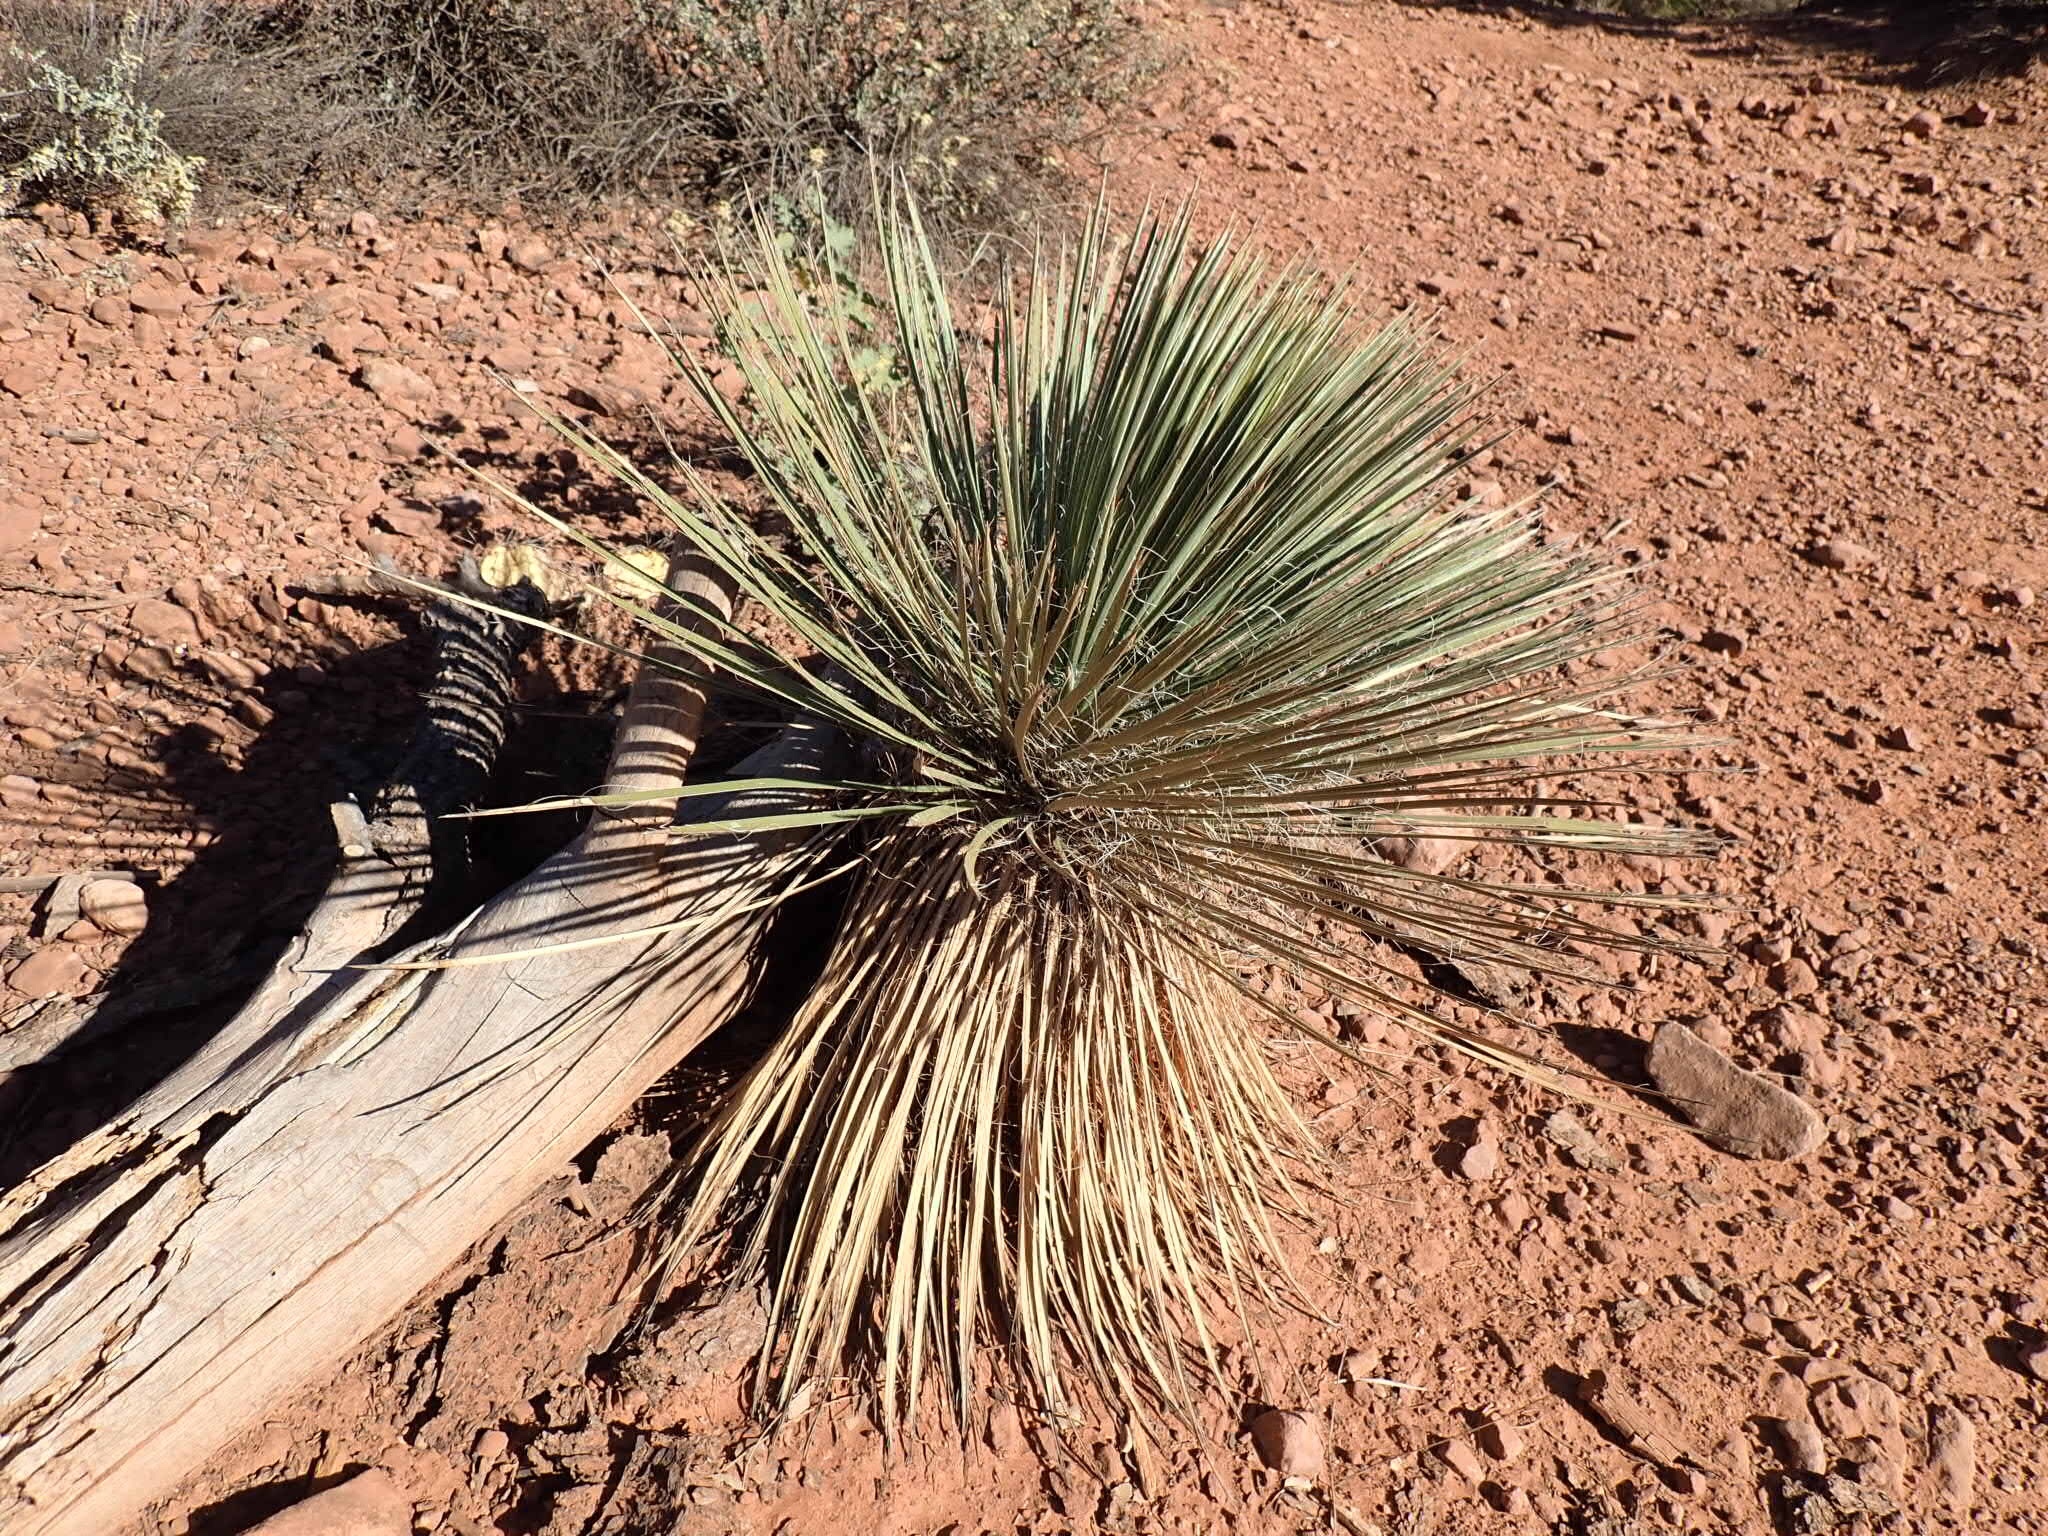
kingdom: Plantae
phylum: Tracheophyta
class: Liliopsida
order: Asparagales
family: Asparagaceae
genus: Yucca
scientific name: Yucca elata
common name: Palmella
